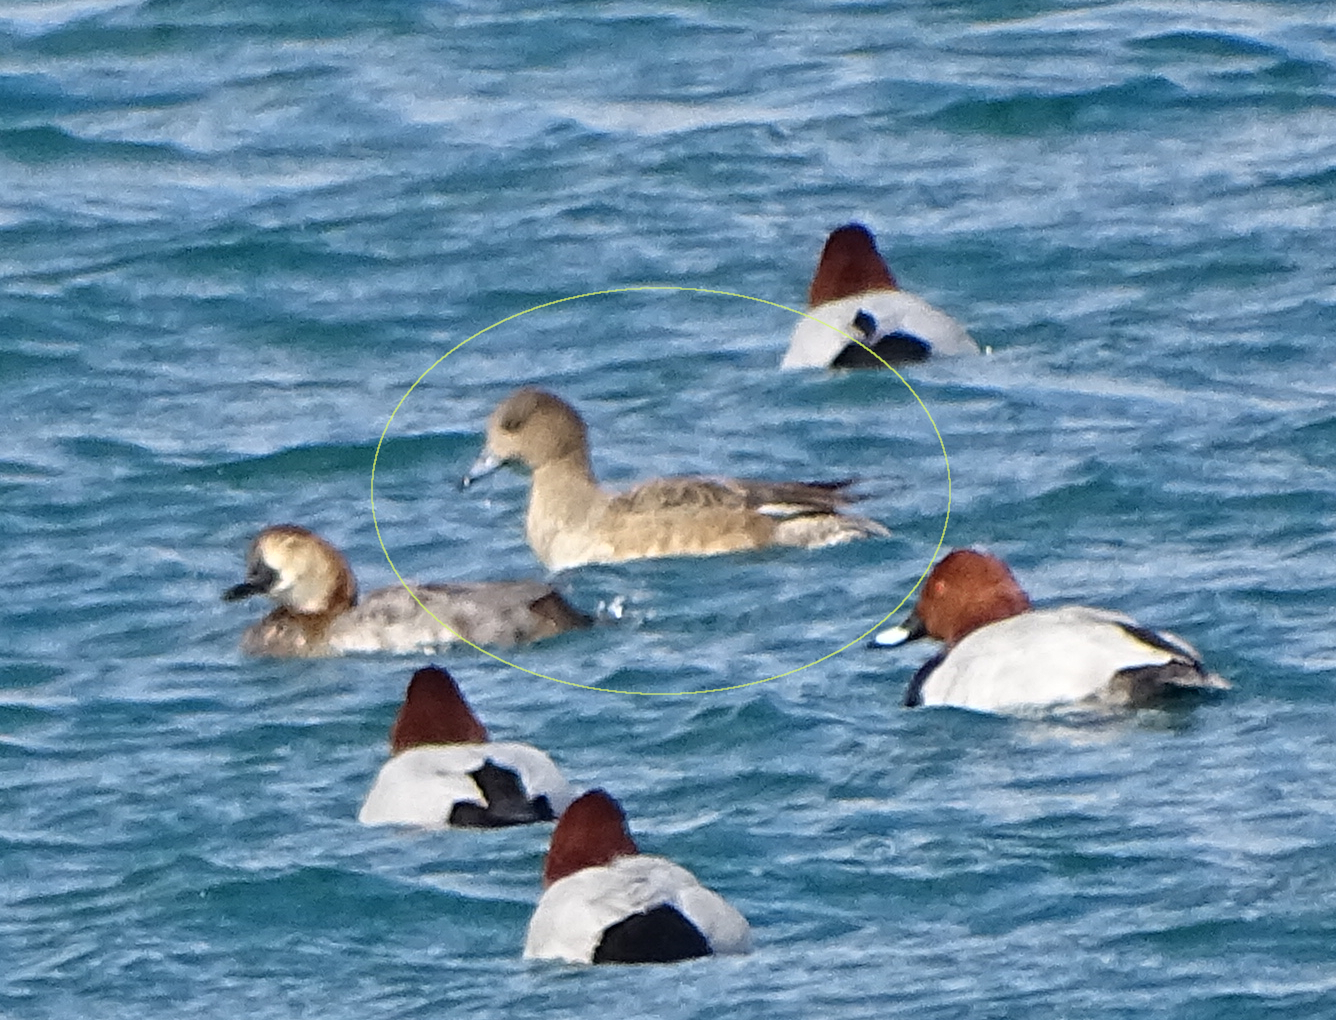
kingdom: Animalia
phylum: Chordata
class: Aves
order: Anseriformes
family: Anatidae
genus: Mareca
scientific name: Mareca penelope
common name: Eurasian wigeon
